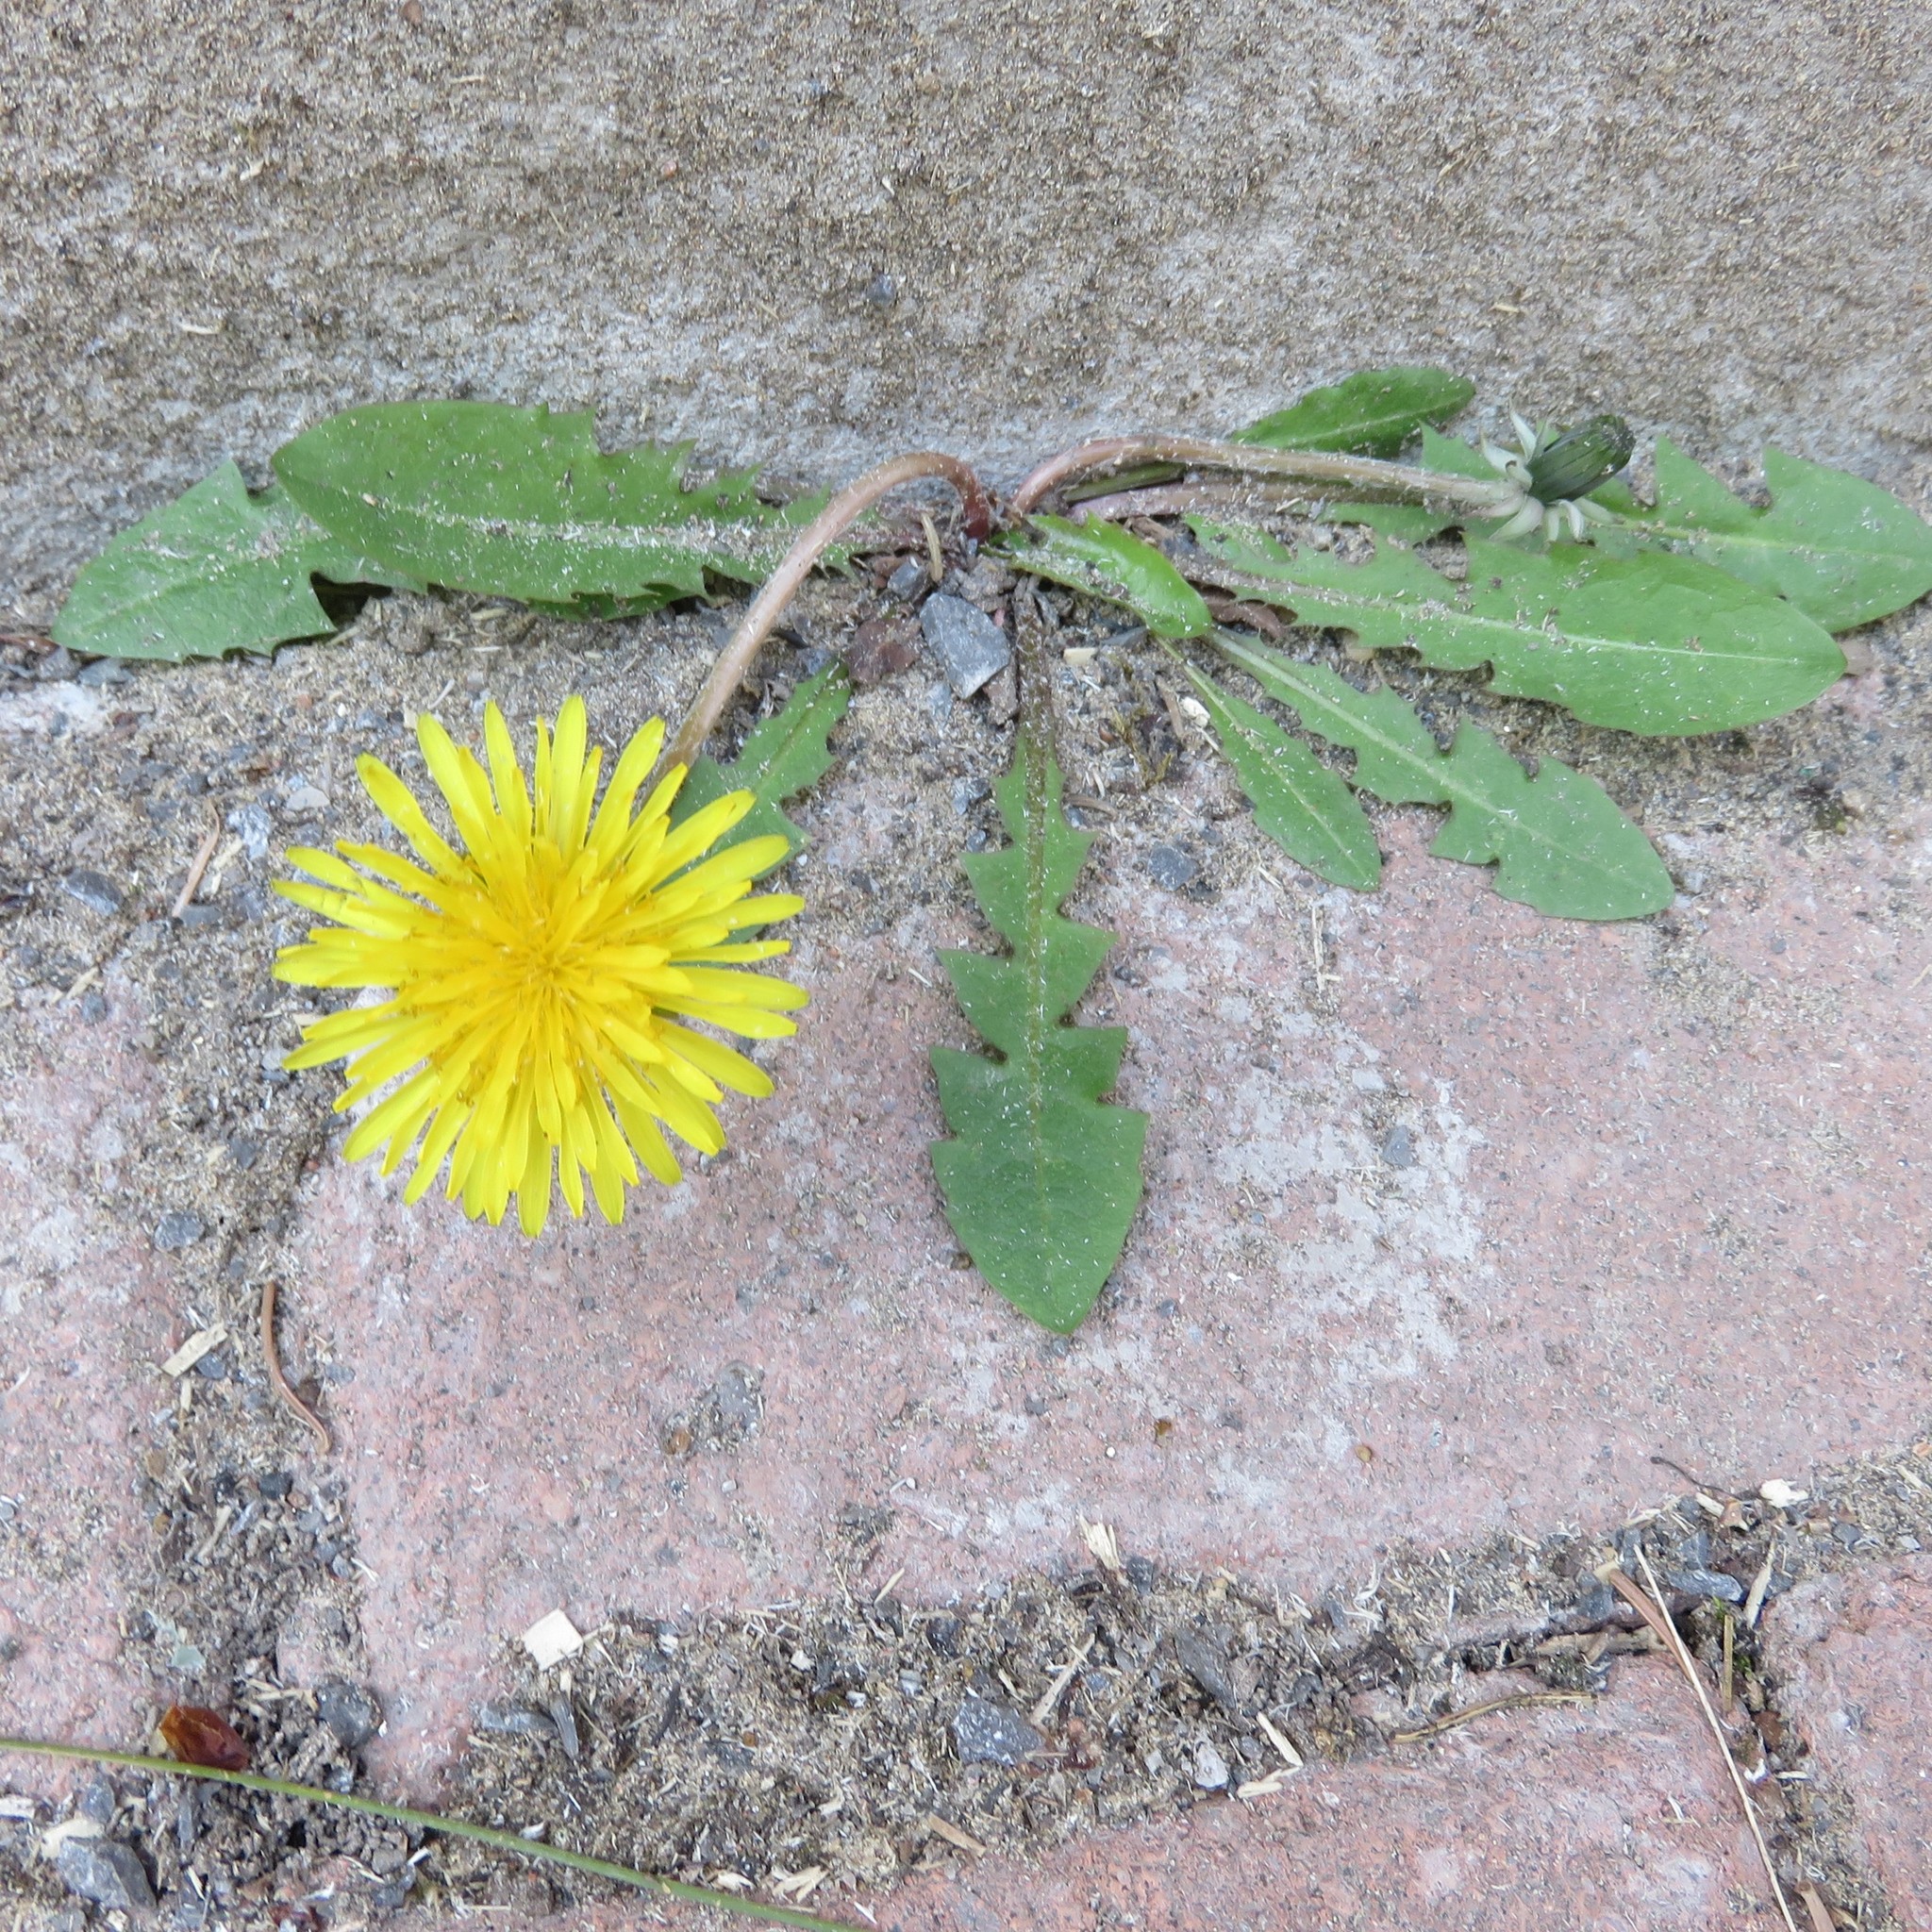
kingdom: Plantae
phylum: Tracheophyta
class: Magnoliopsida
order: Asterales
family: Asteraceae
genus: Taraxacum
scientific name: Taraxacum officinale
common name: Common dandelion
